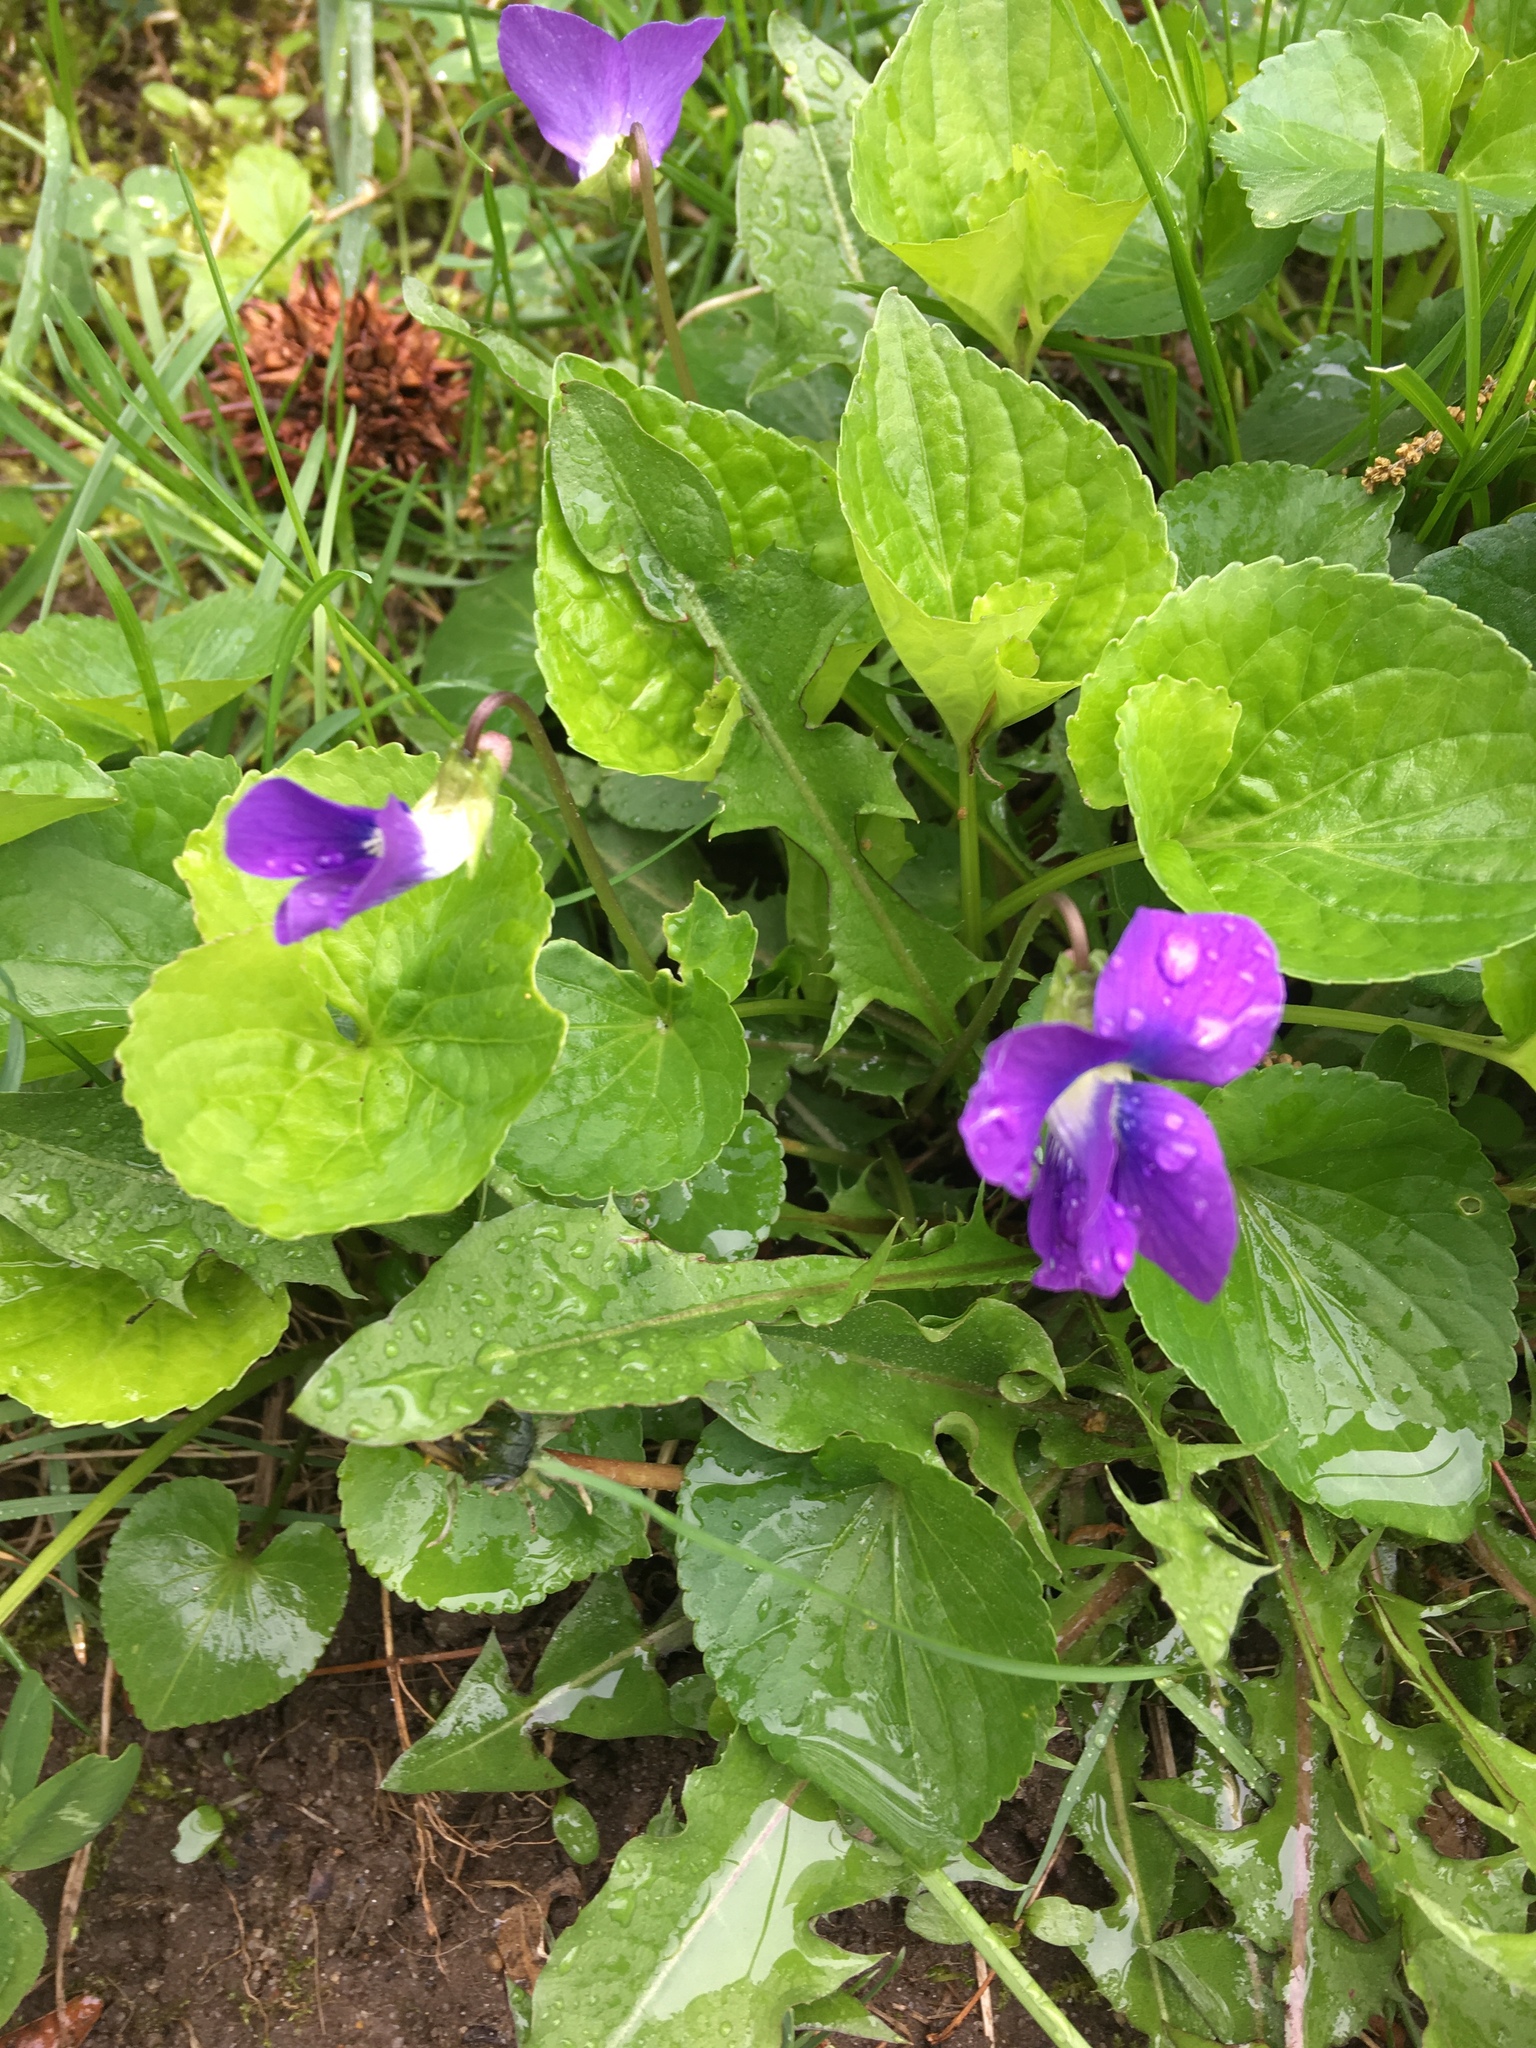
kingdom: Plantae
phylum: Tracheophyta
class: Magnoliopsida
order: Malpighiales
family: Violaceae
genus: Viola
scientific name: Viola sororia
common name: Dooryard violet
